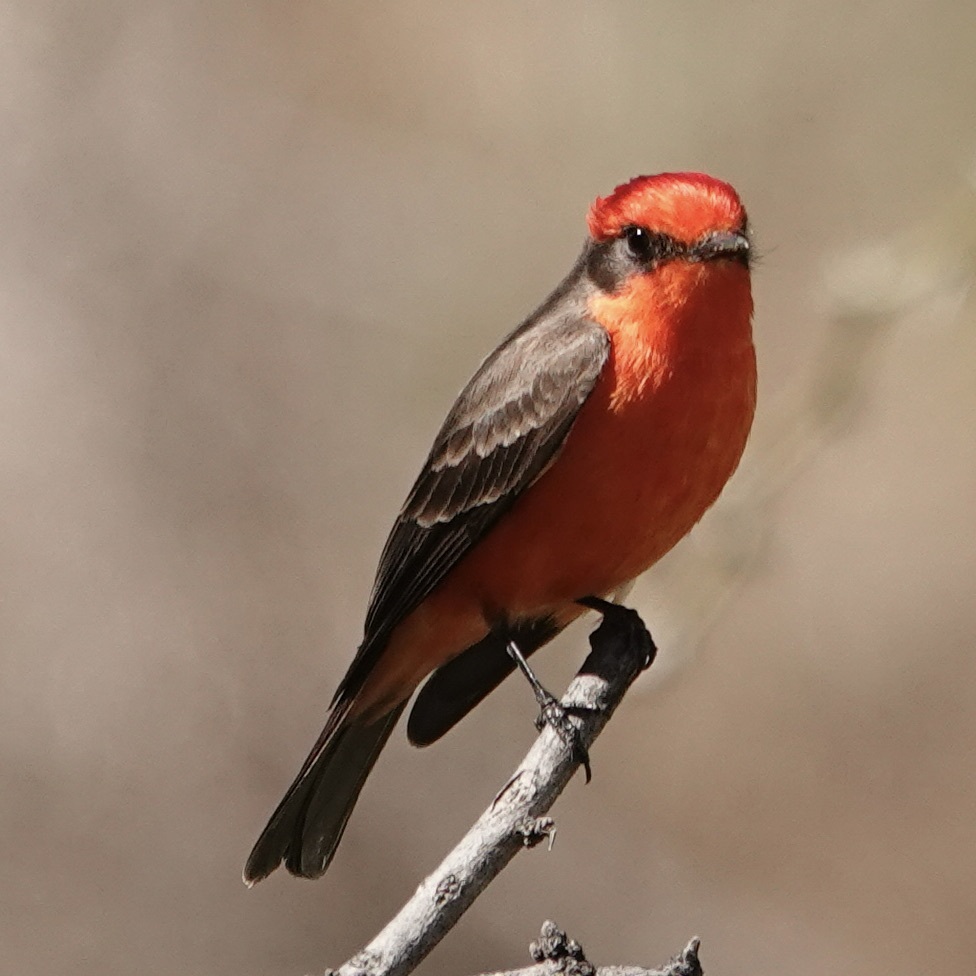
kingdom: Animalia
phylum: Chordata
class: Aves
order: Passeriformes
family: Tyrannidae
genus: Pyrocephalus
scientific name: Pyrocephalus rubinus
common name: Vermilion flycatcher
